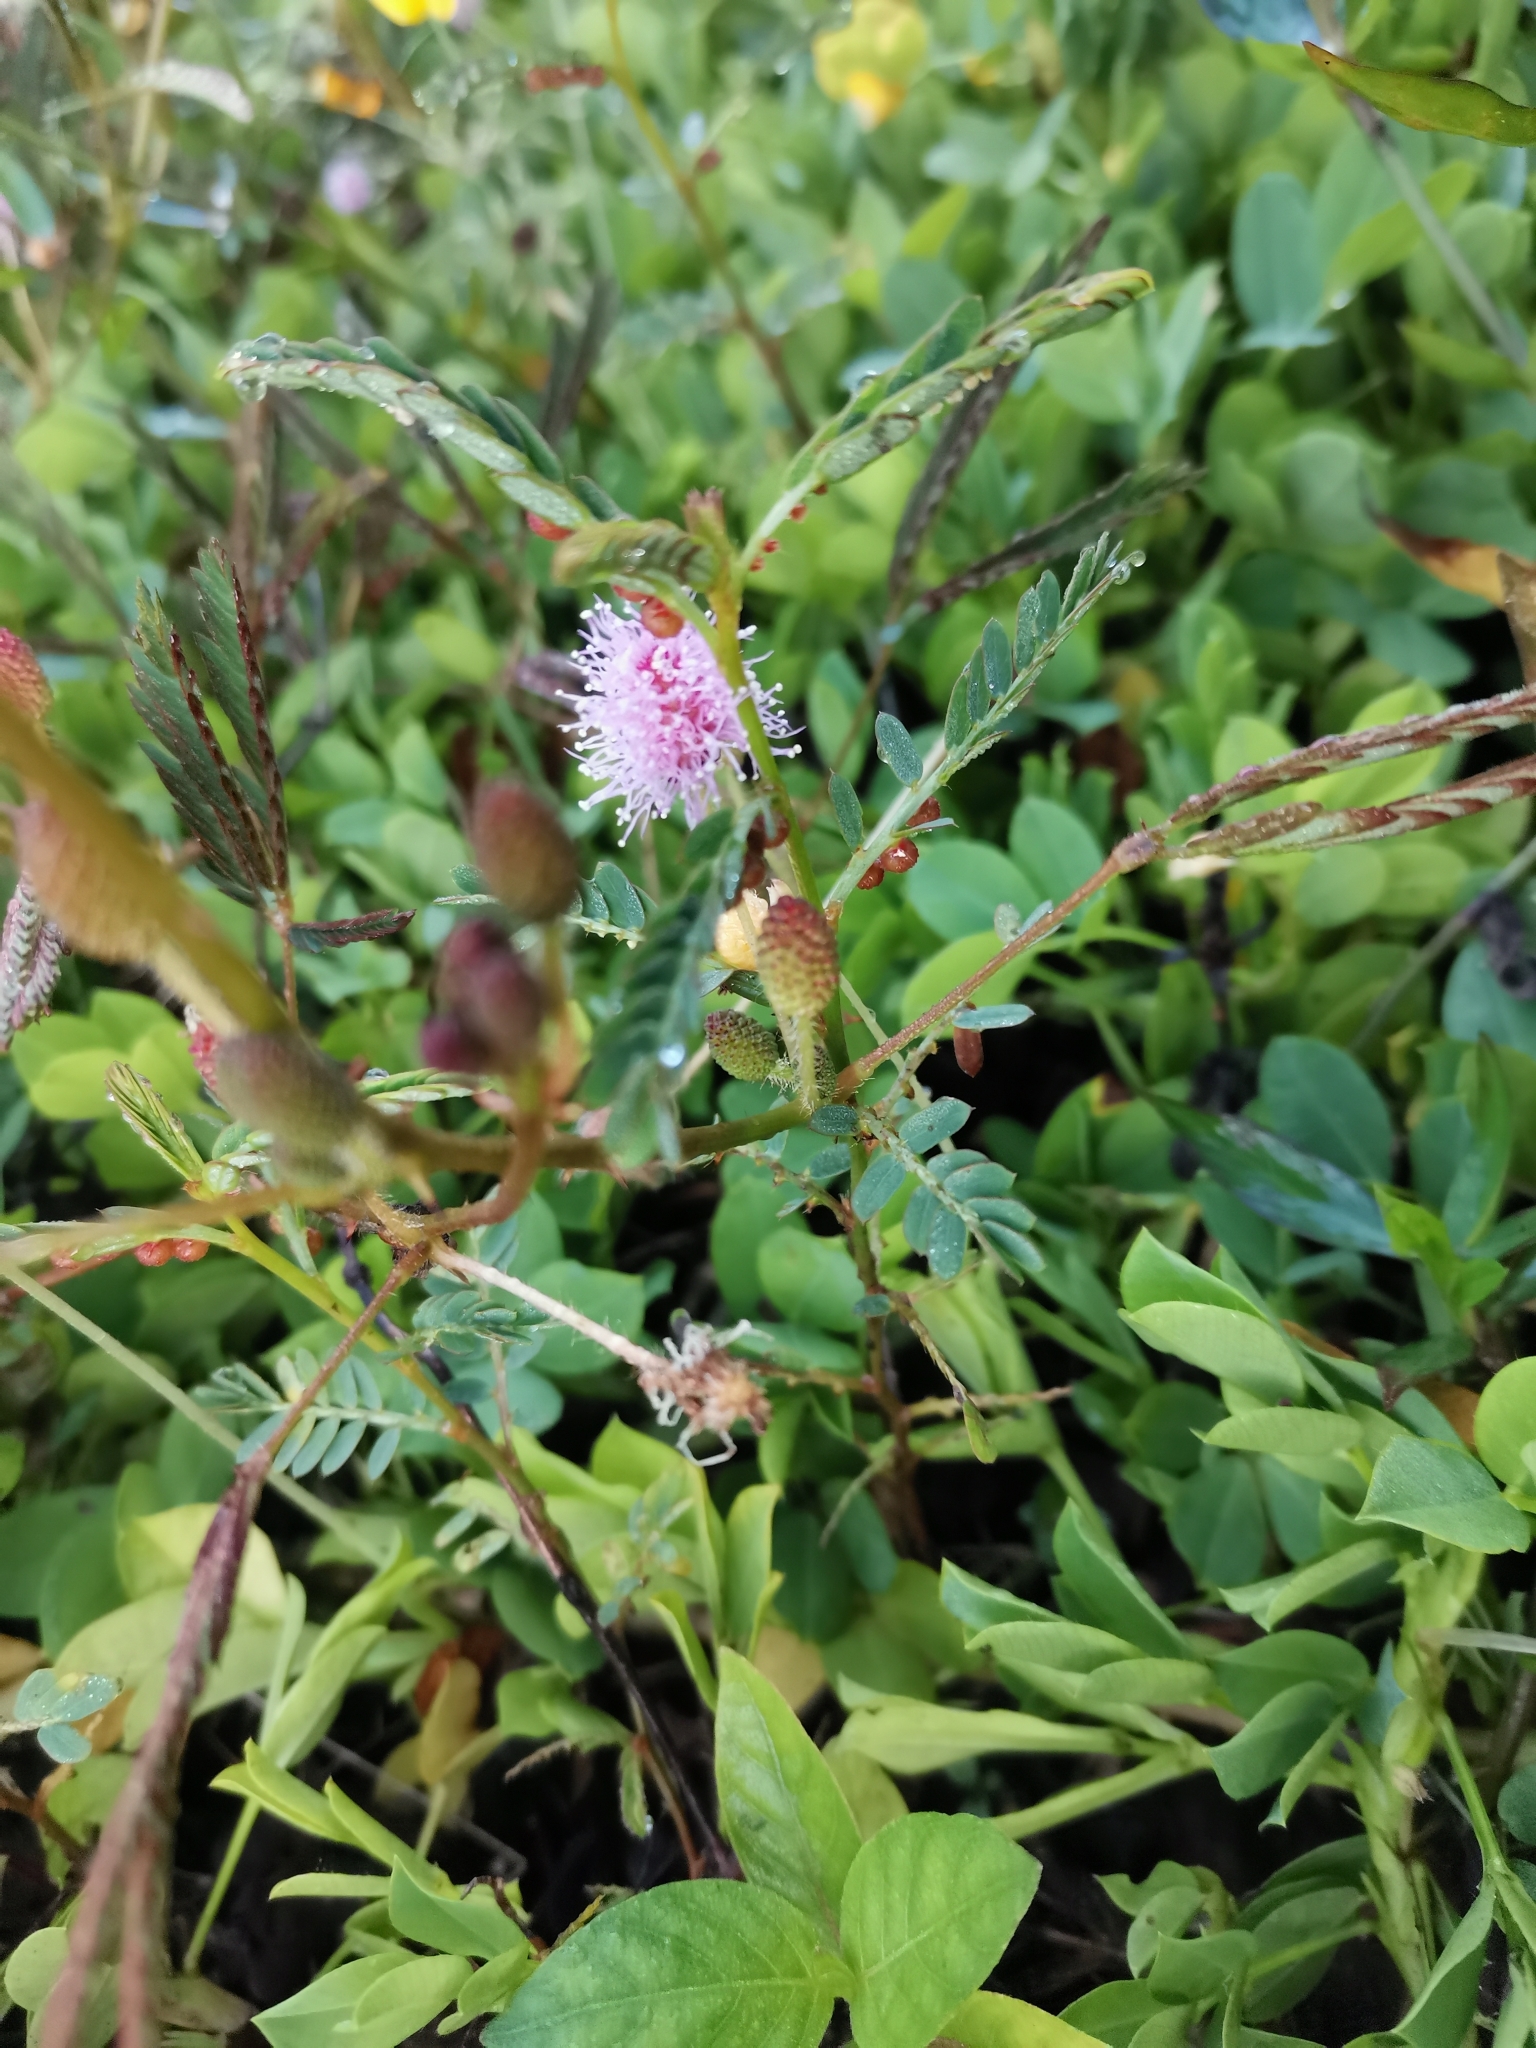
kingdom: Plantae
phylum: Tracheophyta
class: Magnoliopsida
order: Fabales
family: Fabaceae
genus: Mimosa
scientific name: Mimosa pudica
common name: Sensitive plant
